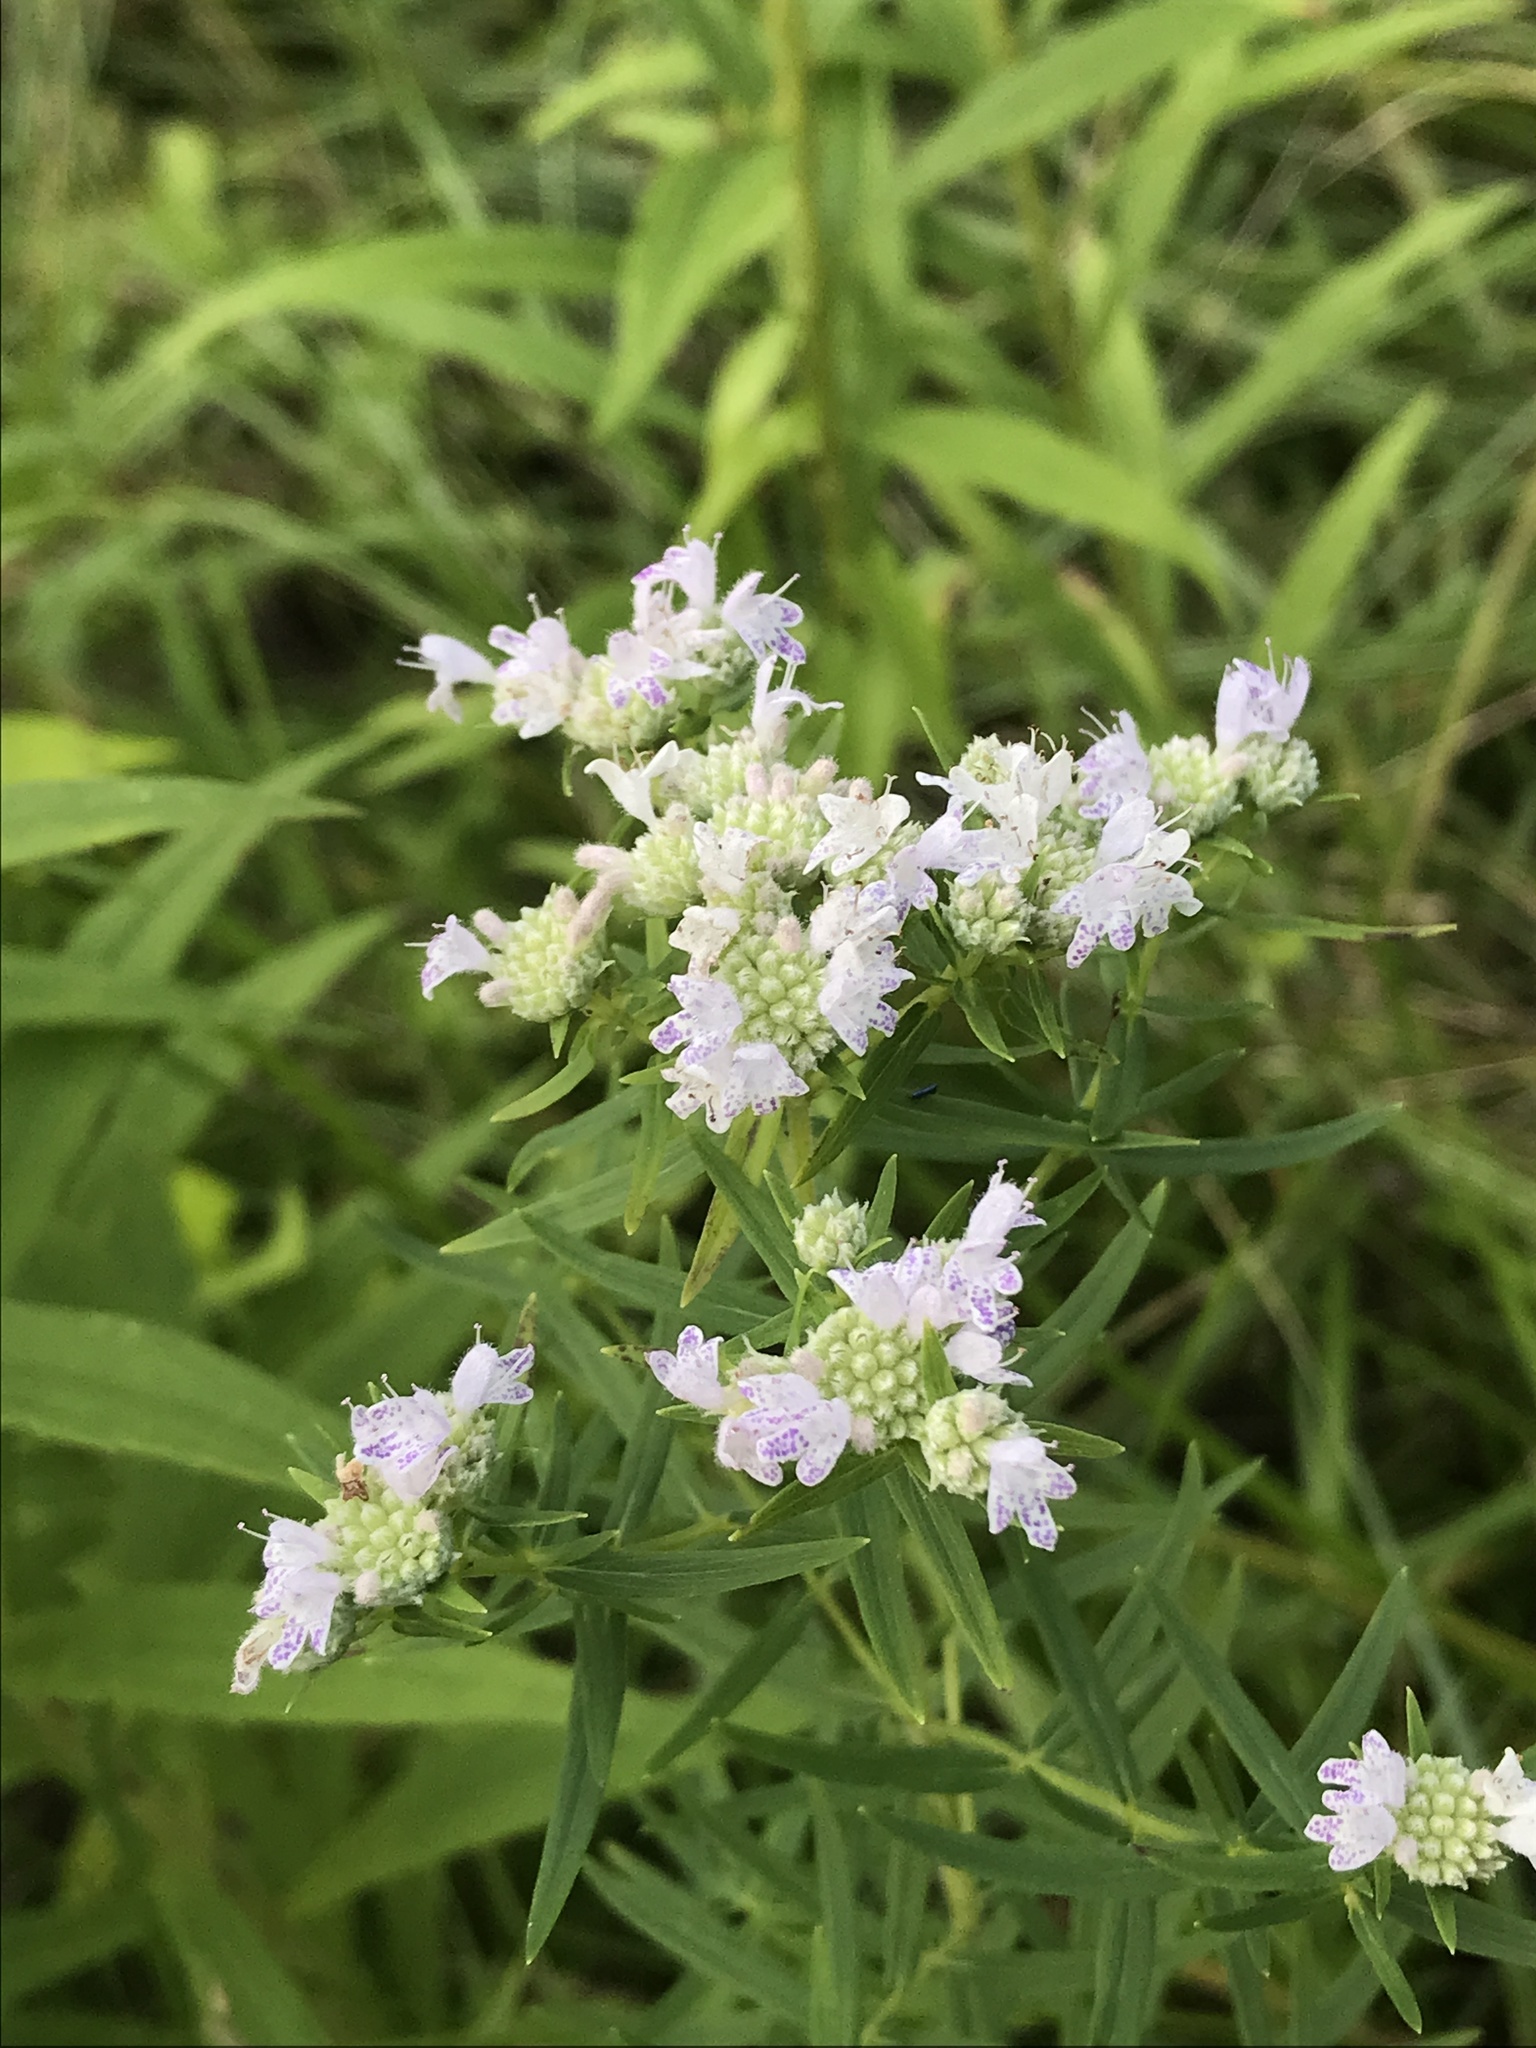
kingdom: Plantae
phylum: Tracheophyta
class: Magnoliopsida
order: Lamiales
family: Lamiaceae
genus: Pycnanthemum
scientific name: Pycnanthemum virginianum
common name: Virginia mountain-mint
